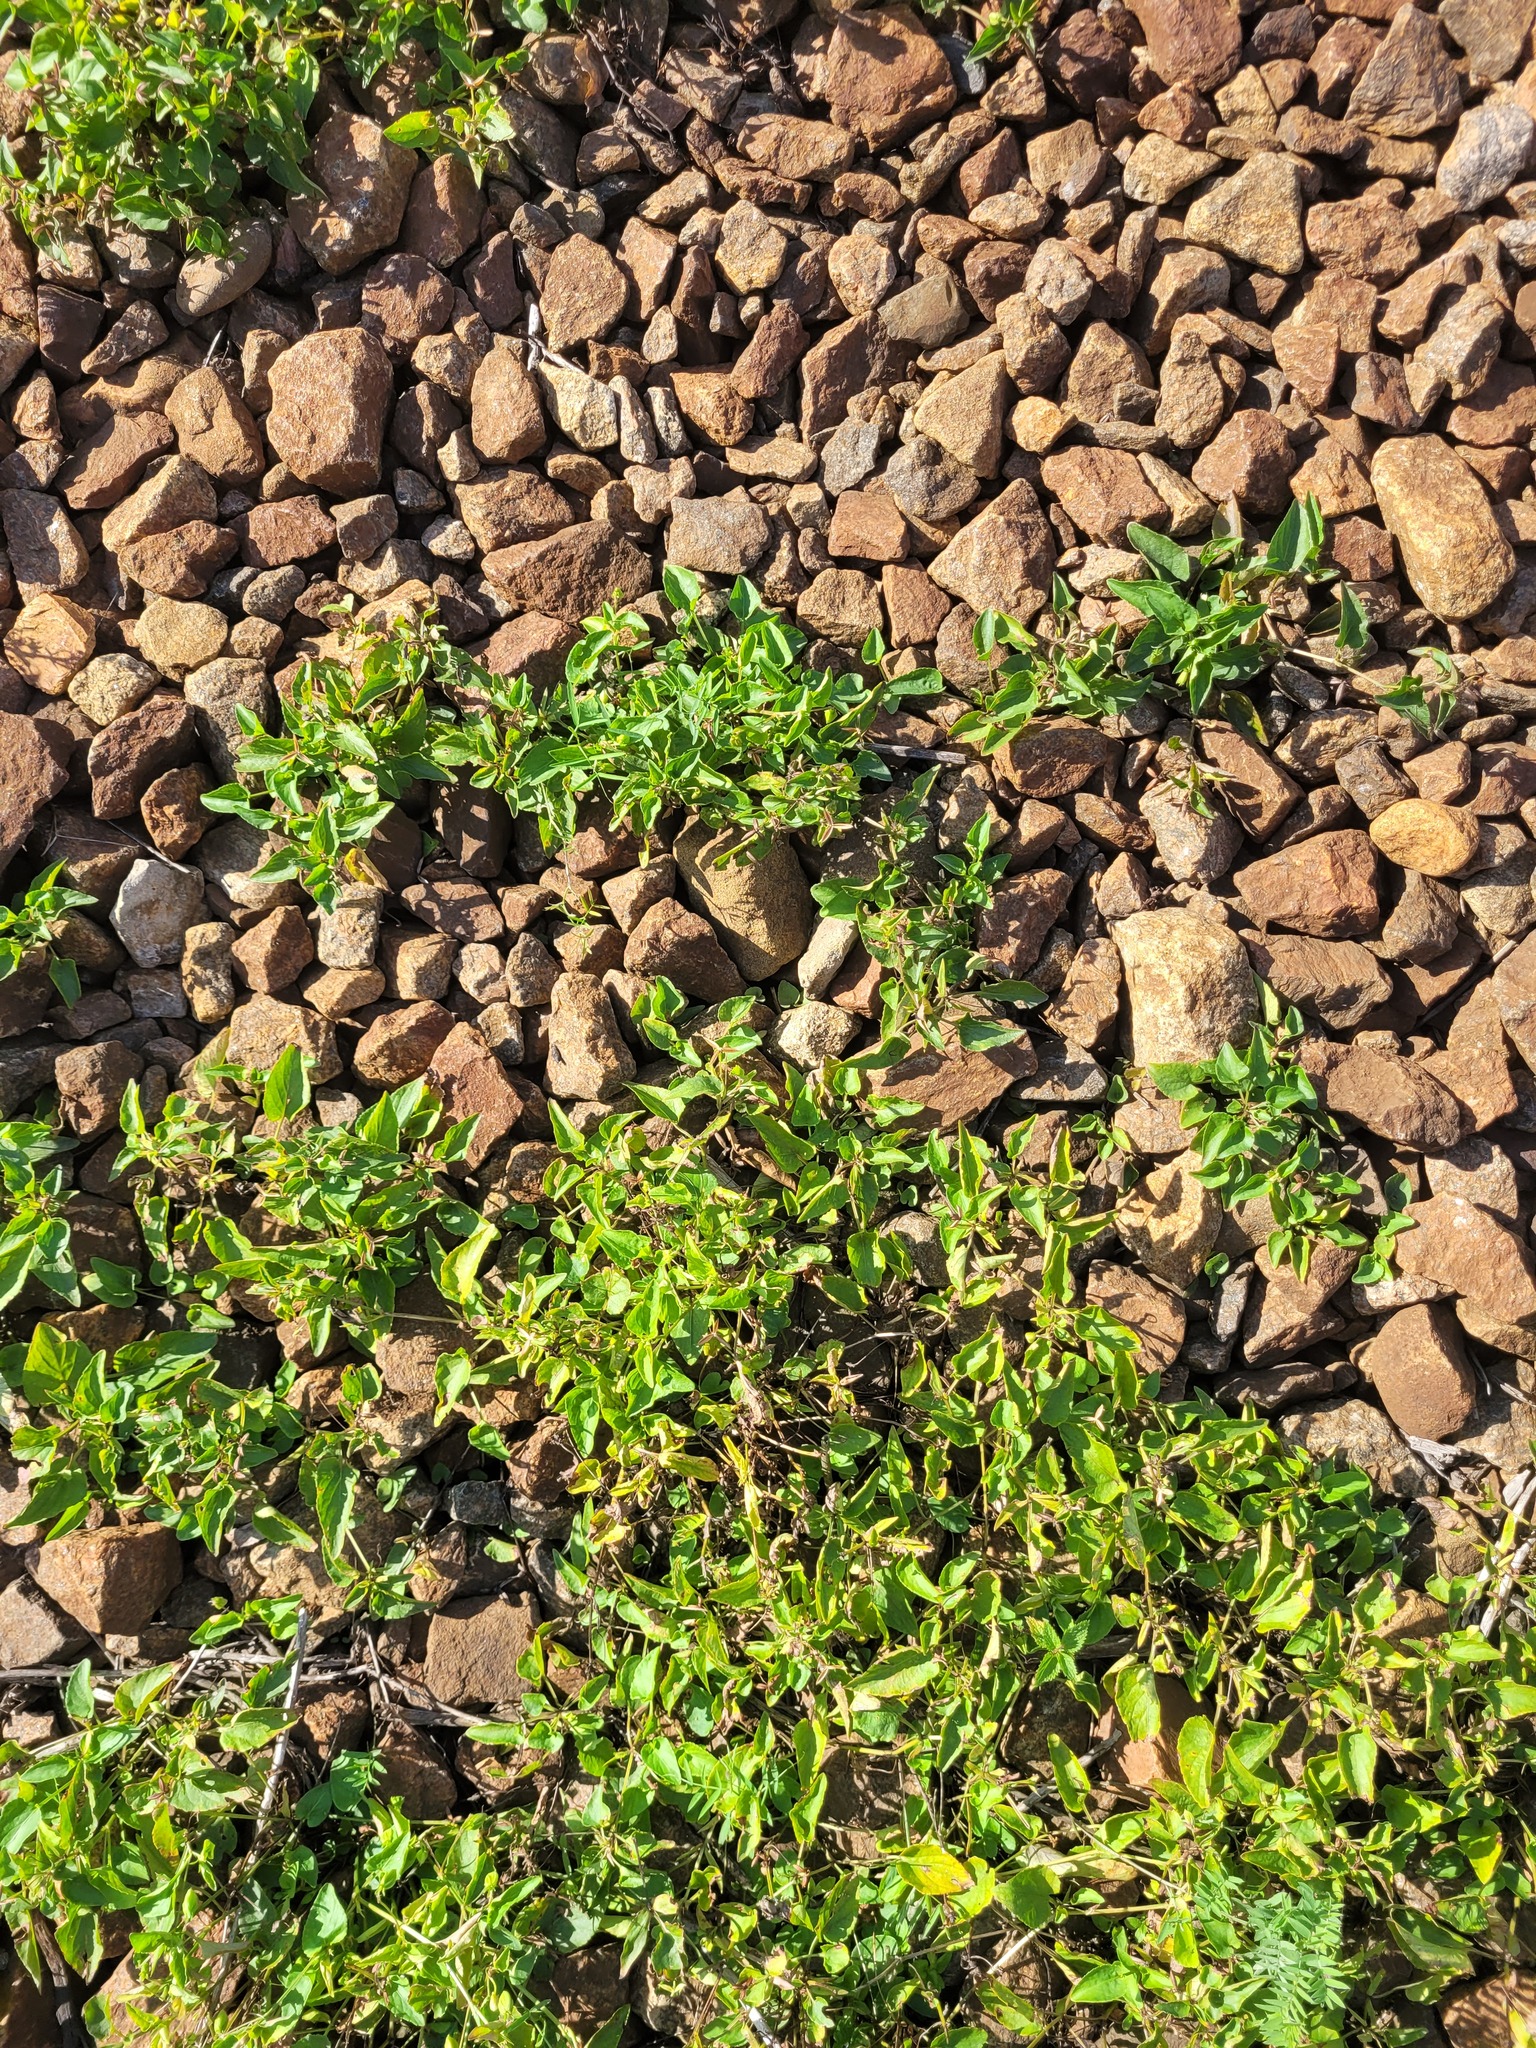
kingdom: Plantae
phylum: Tracheophyta
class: Magnoliopsida
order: Malpighiales
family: Violaceae
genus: Viola
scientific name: Viola canina
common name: Heath dog-violet
